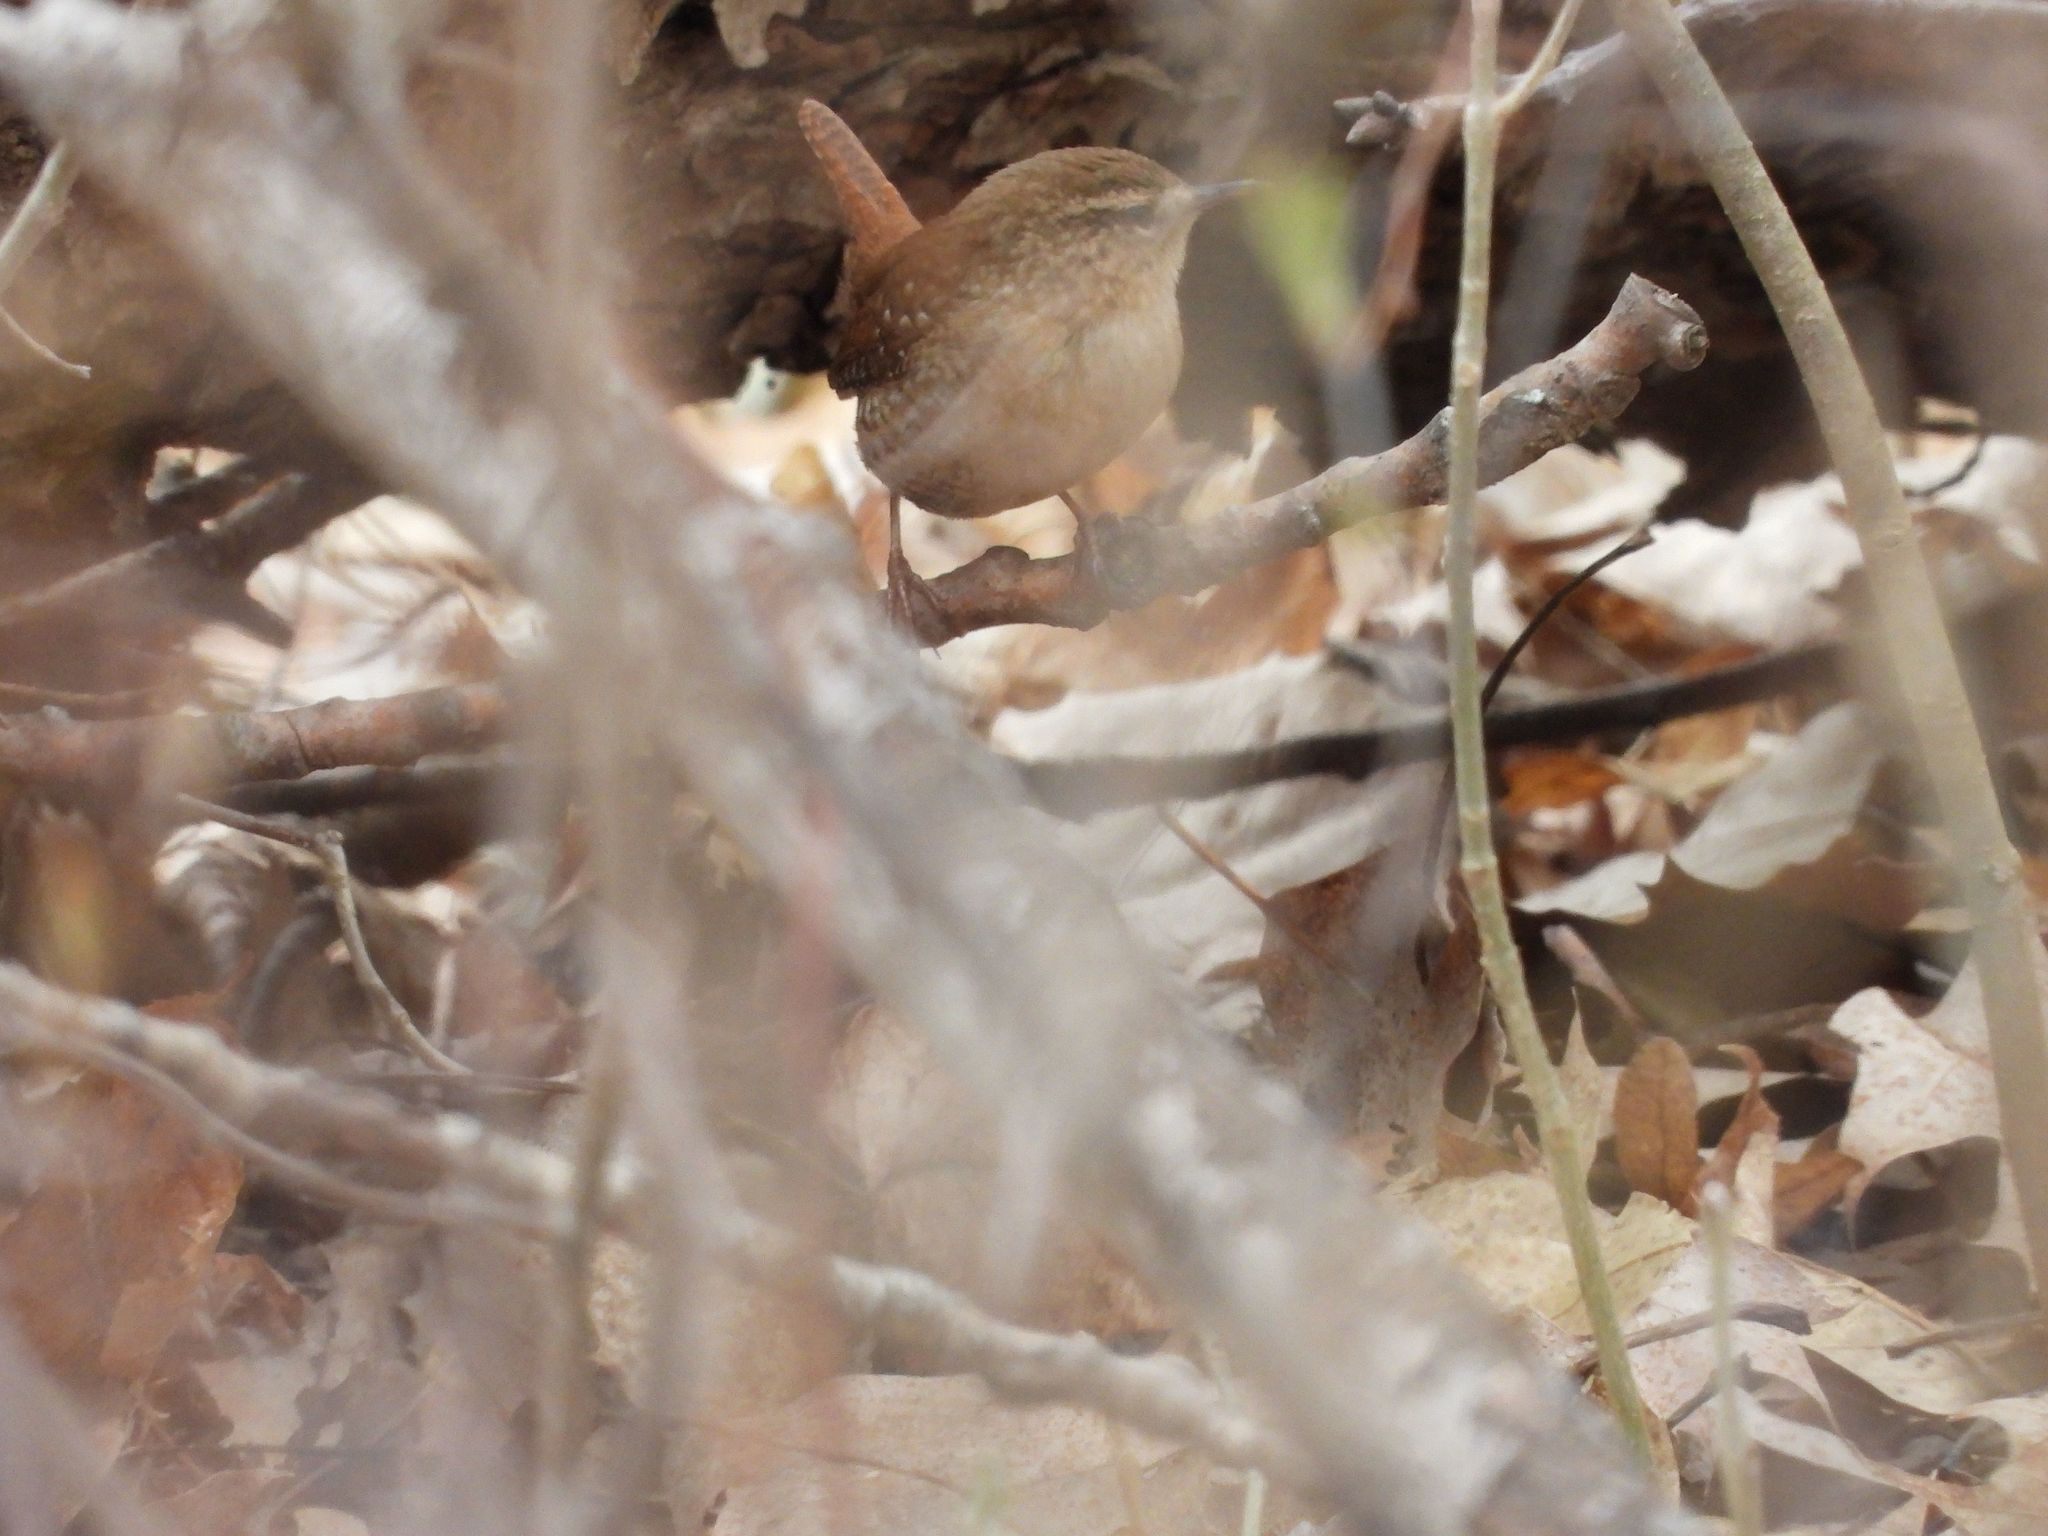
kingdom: Animalia
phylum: Chordata
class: Aves
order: Passeriformes
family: Troglodytidae
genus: Troglodytes
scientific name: Troglodytes hiemalis
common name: Winter wren
